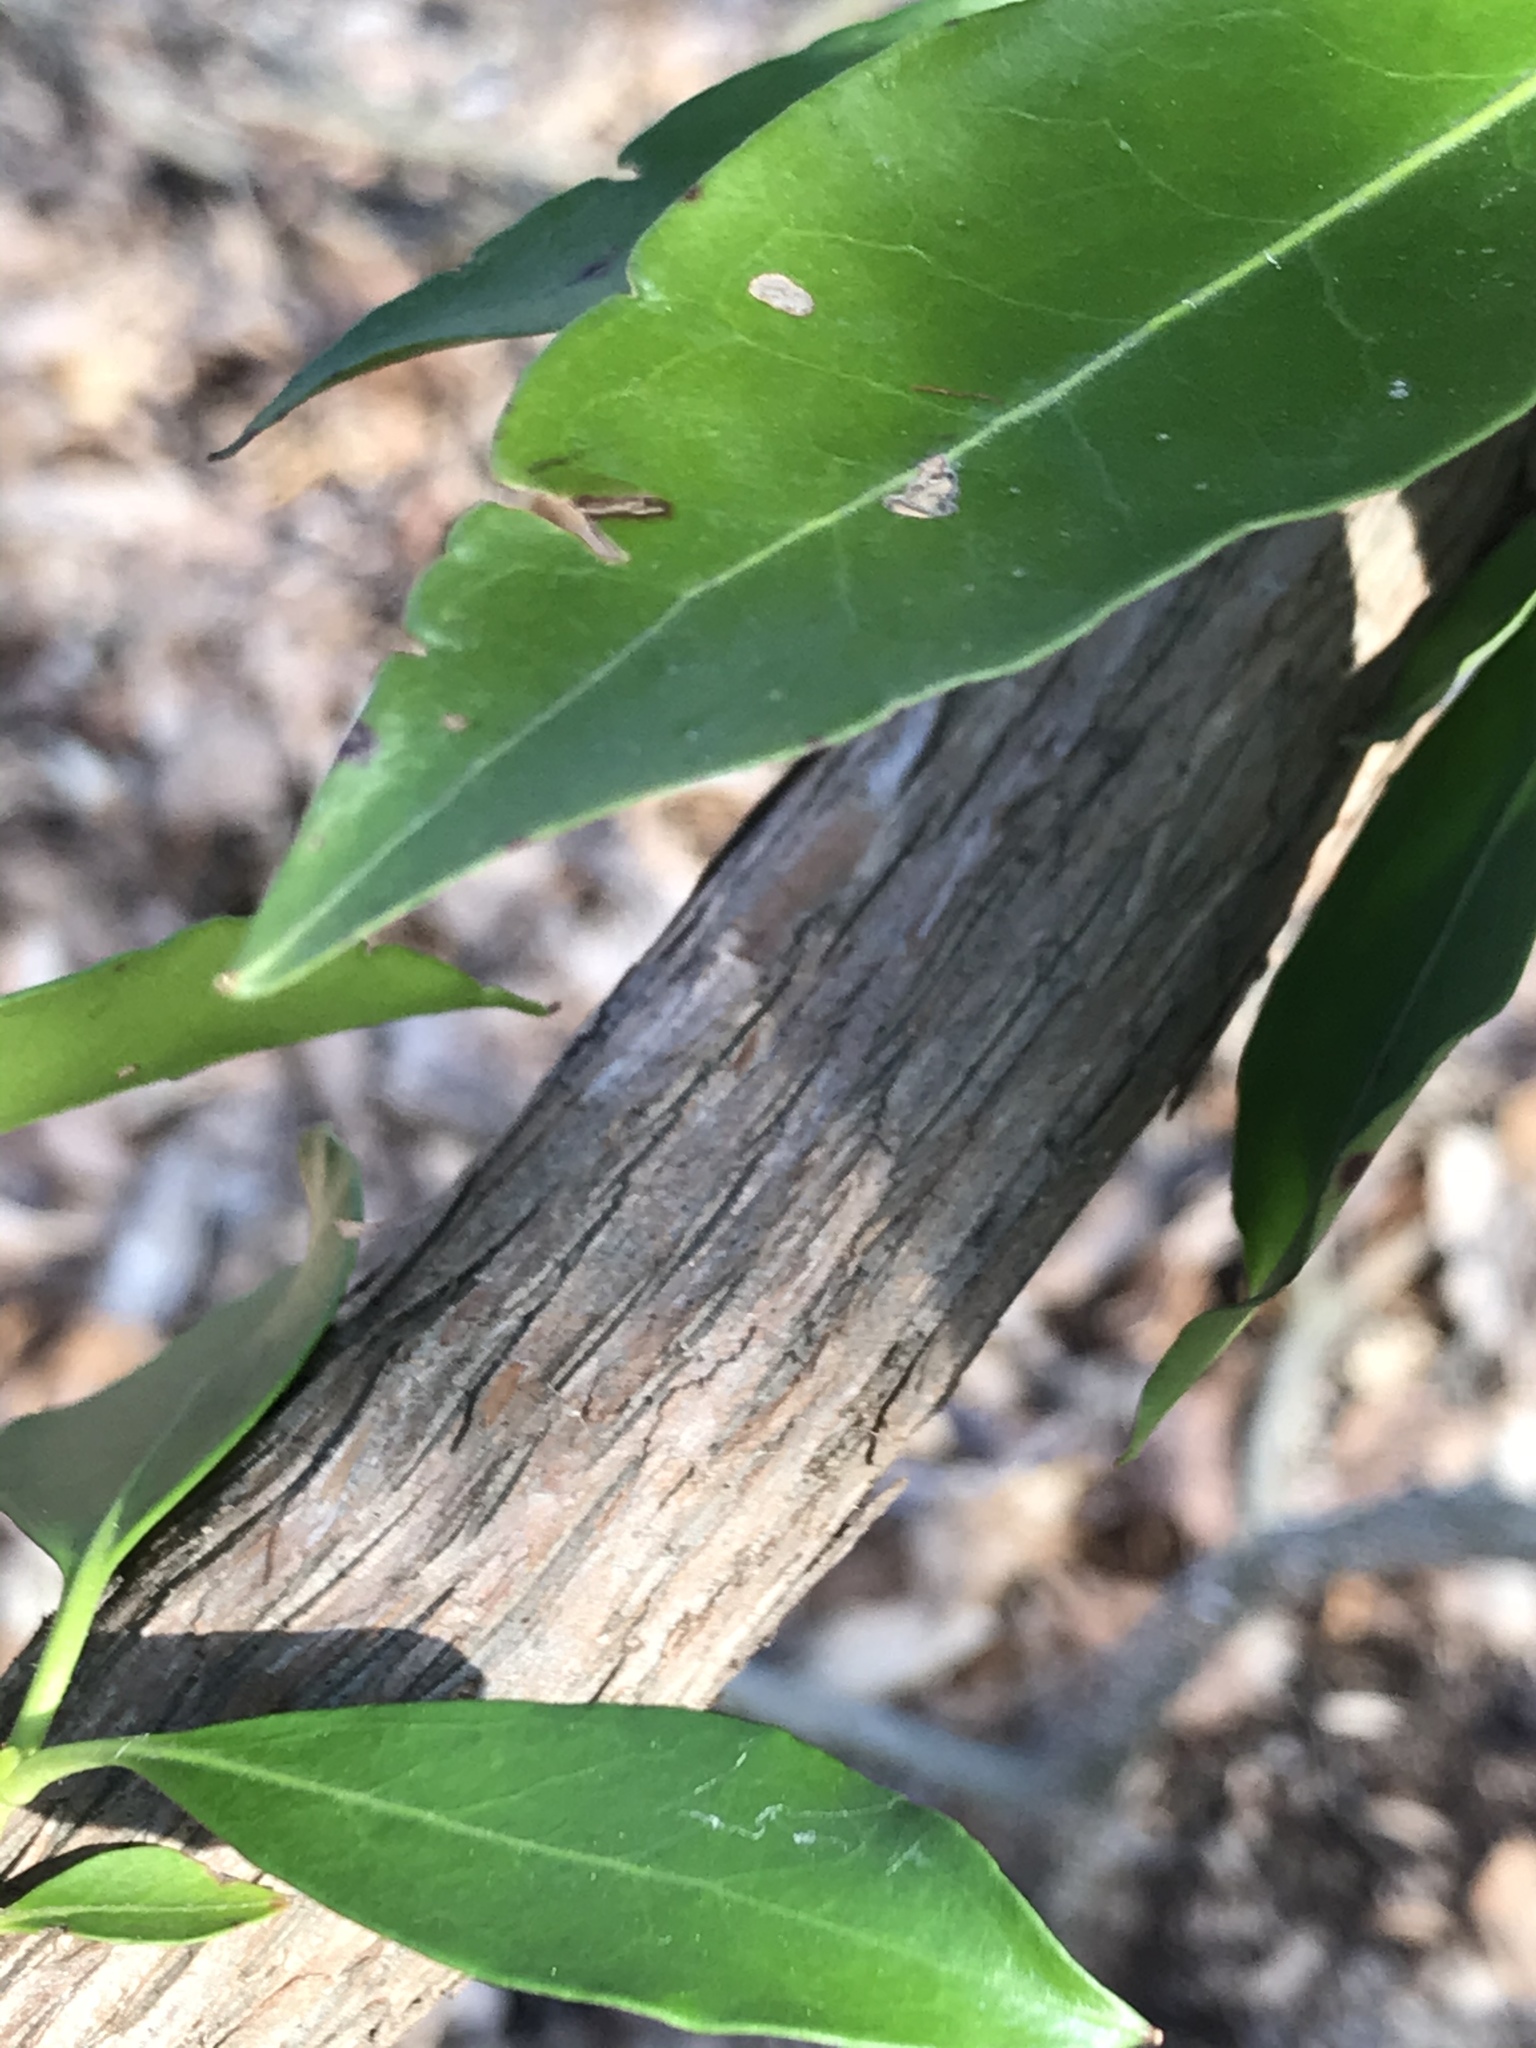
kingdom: Plantae
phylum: Tracheophyta
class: Magnoliopsida
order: Ericales
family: Ericaceae
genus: Kalmia
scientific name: Kalmia latifolia
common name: Mountain-laurel
